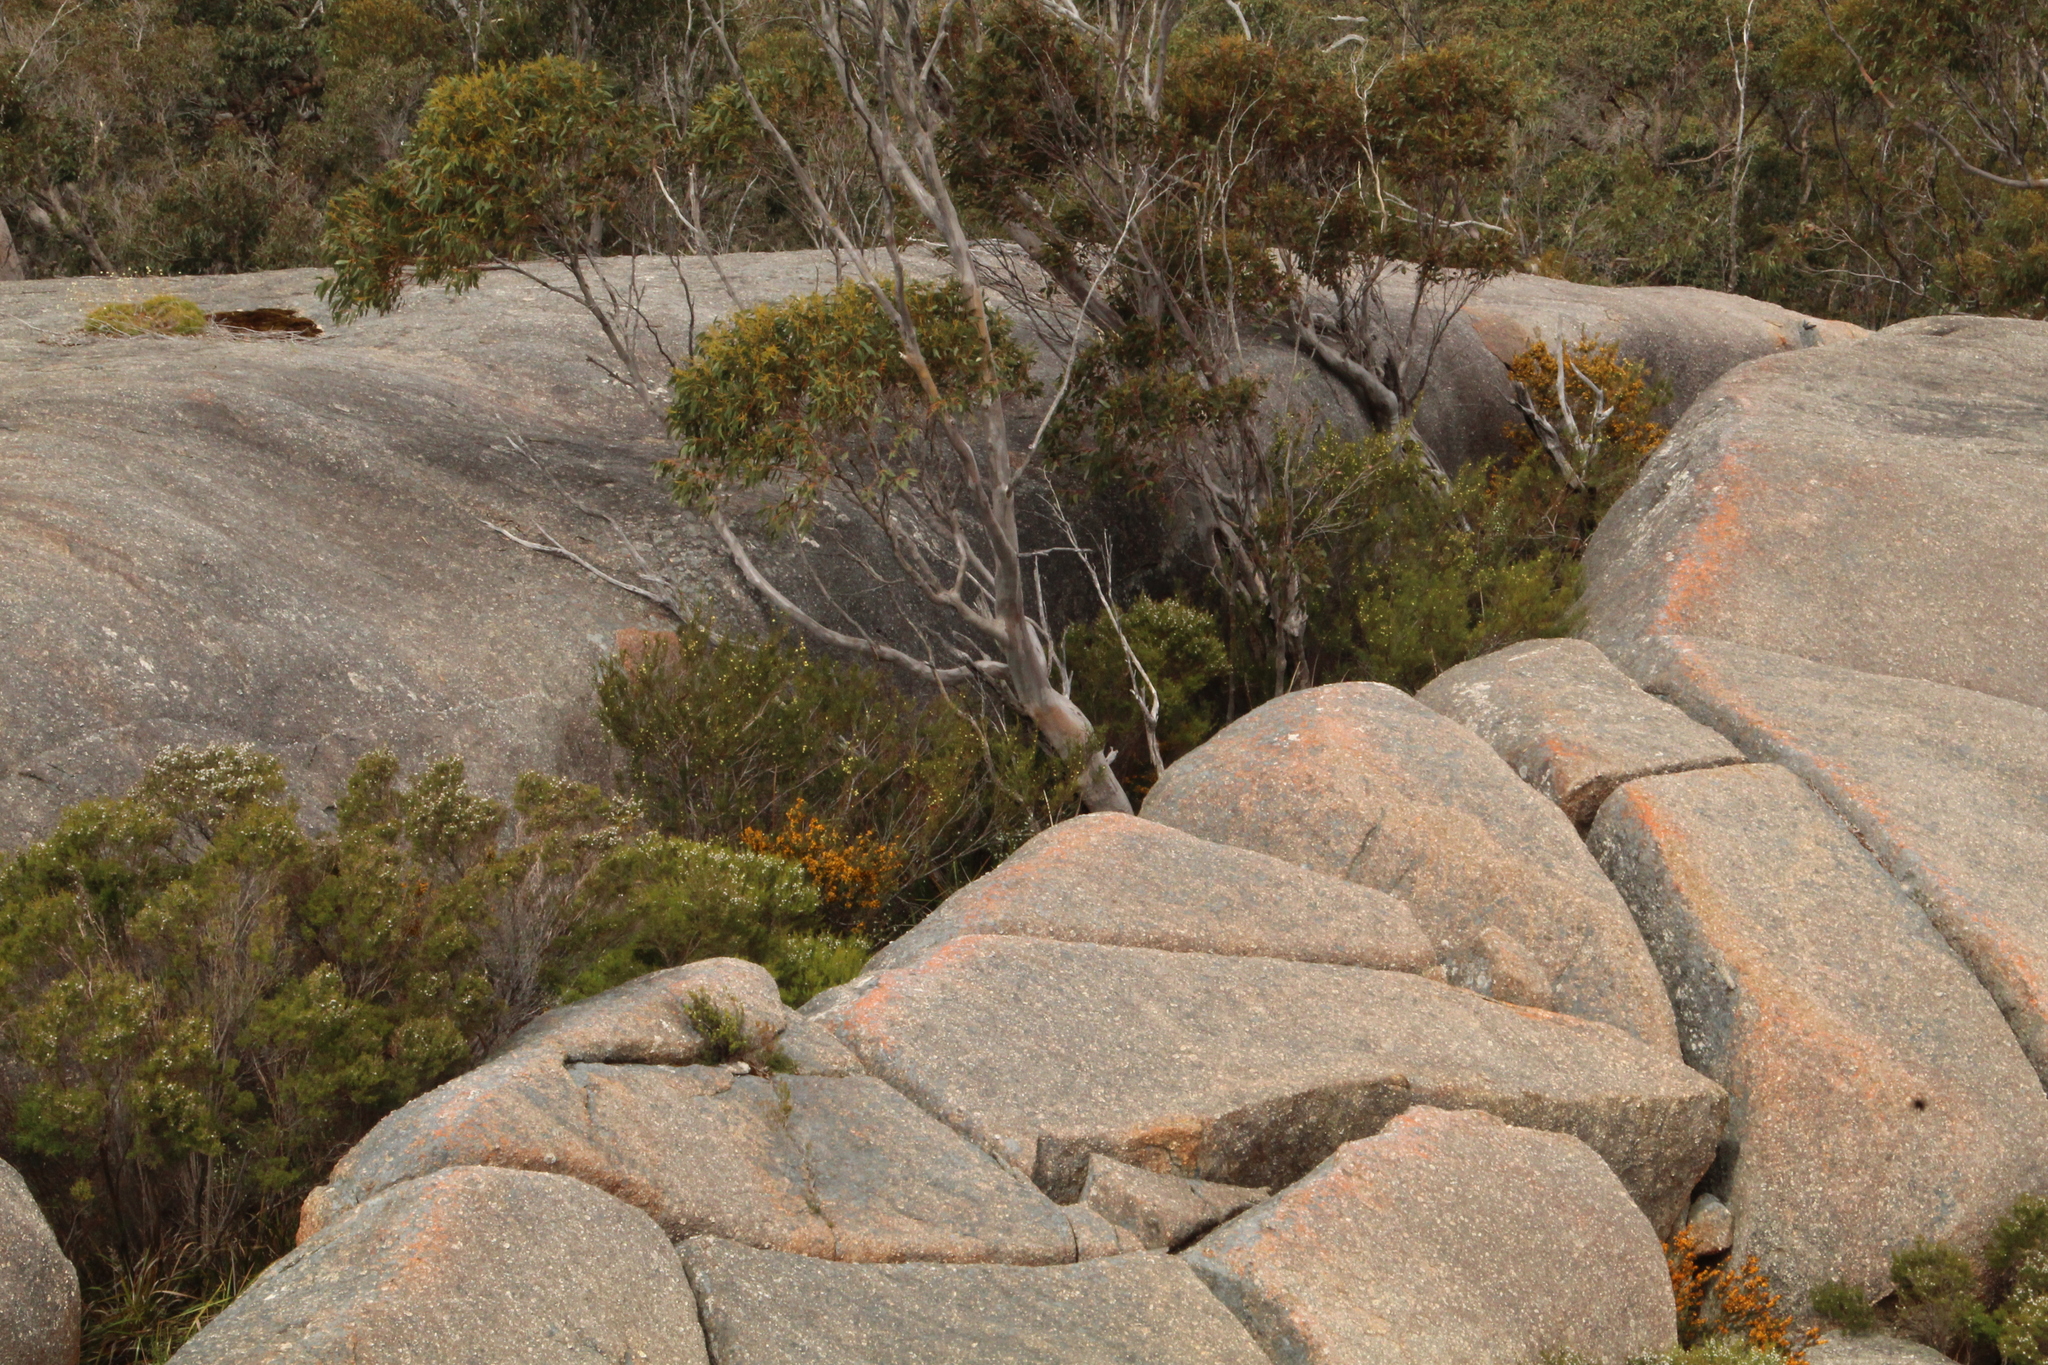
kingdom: Plantae
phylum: Tracheophyta
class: Magnoliopsida
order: Myrtales
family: Myrtaceae
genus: Eucalyptus
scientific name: Eucalyptus megacarpa
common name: Bullich
